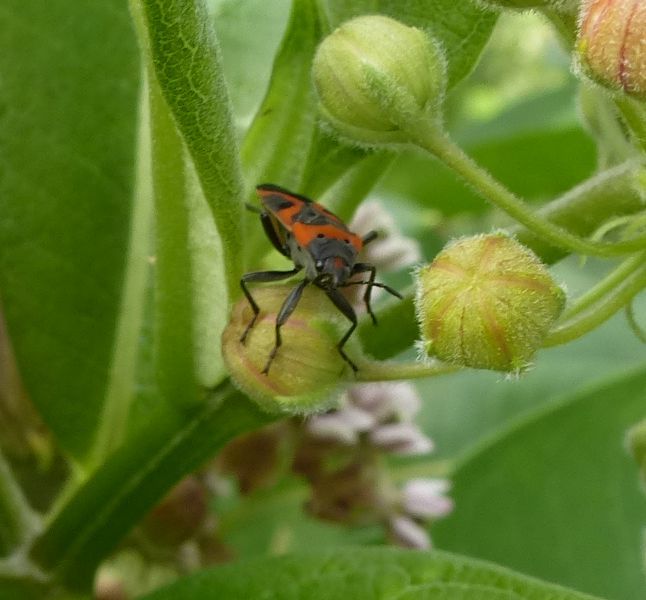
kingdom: Animalia
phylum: Arthropoda
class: Insecta
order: Hemiptera
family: Lygaeidae
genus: Lygaeus
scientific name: Lygaeus kalmii
